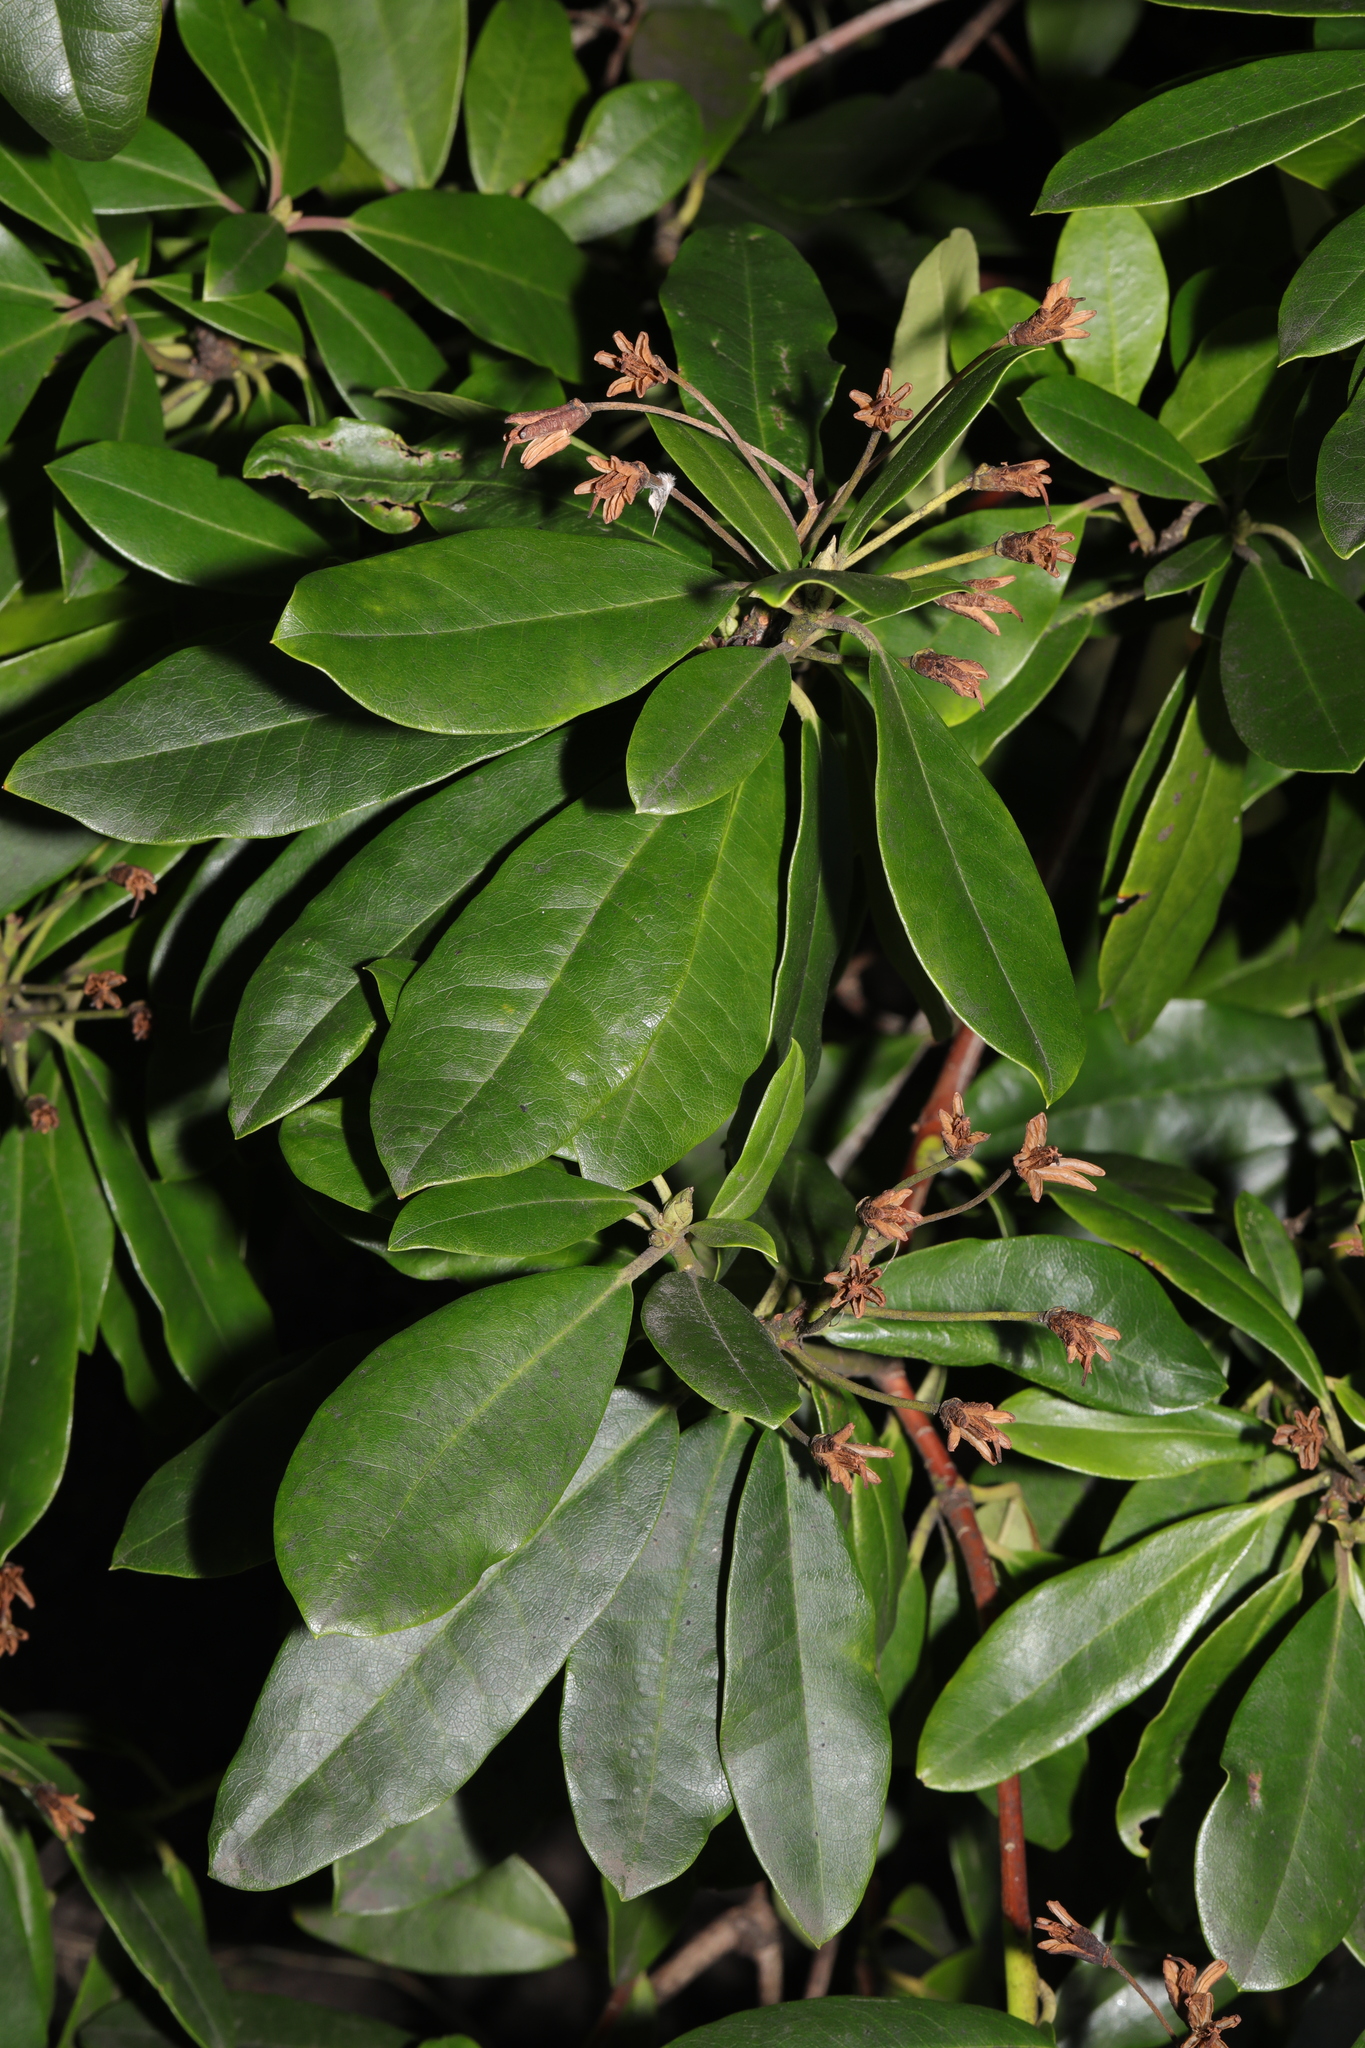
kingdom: Plantae
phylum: Tracheophyta
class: Magnoliopsida
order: Ericales
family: Ericaceae
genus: Rhododendron
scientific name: Rhododendron ponticum
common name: Rhododendron
